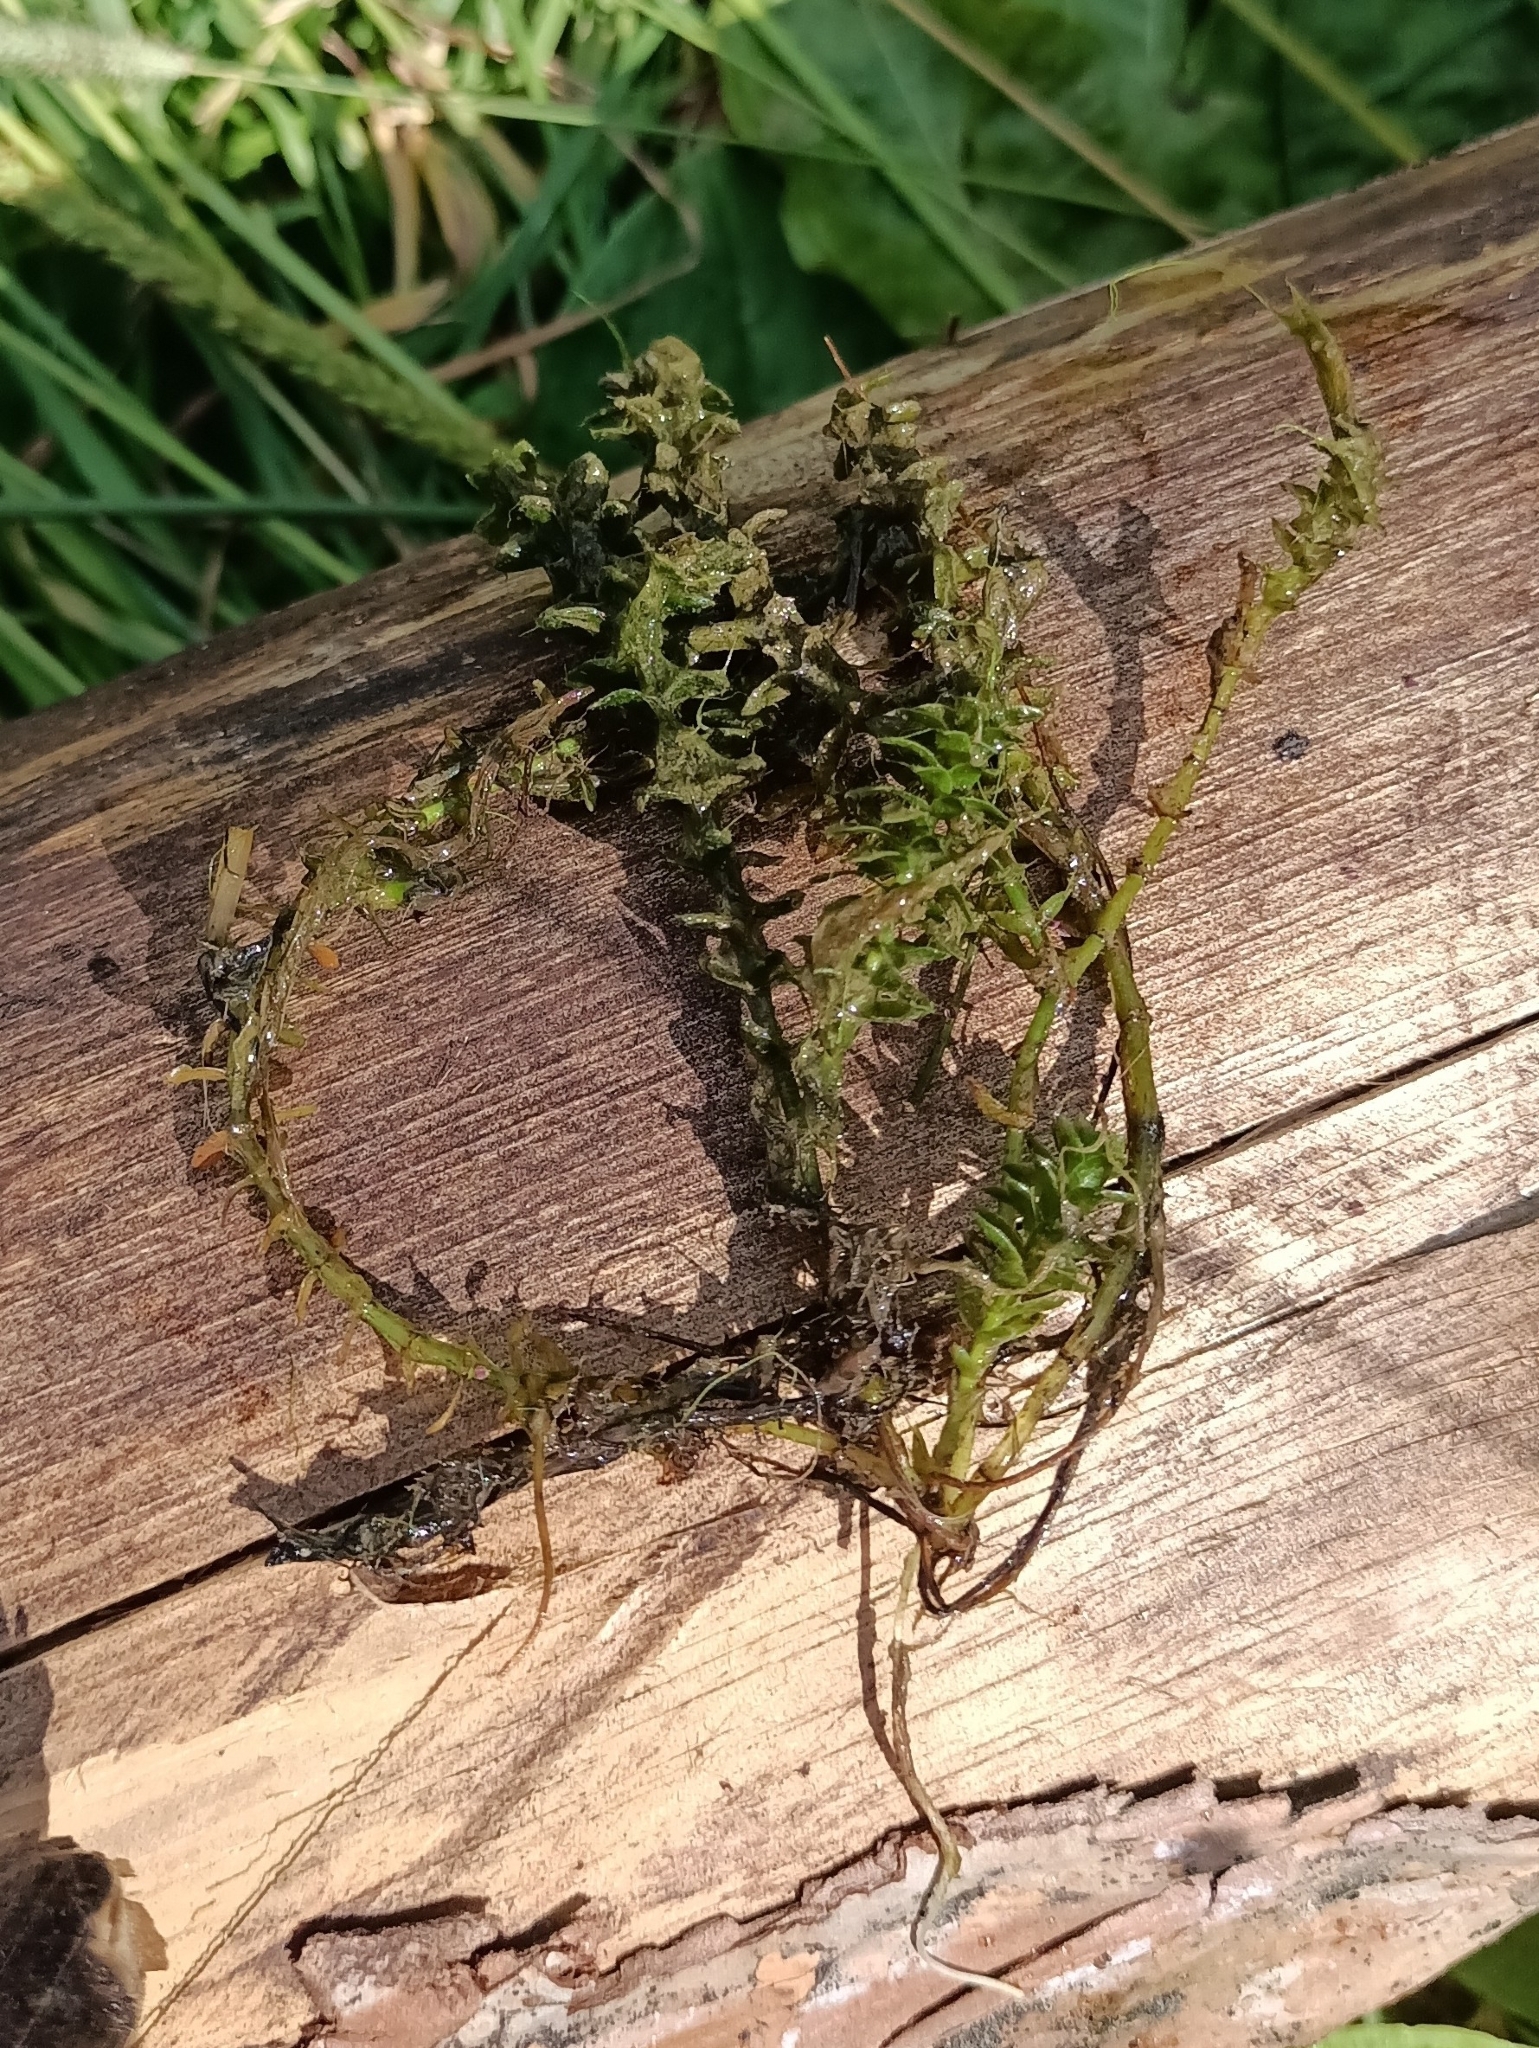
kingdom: Plantae
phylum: Tracheophyta
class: Liliopsida
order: Alismatales
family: Hydrocharitaceae
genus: Elodea
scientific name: Elodea canadensis
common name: Canadian waterweed
